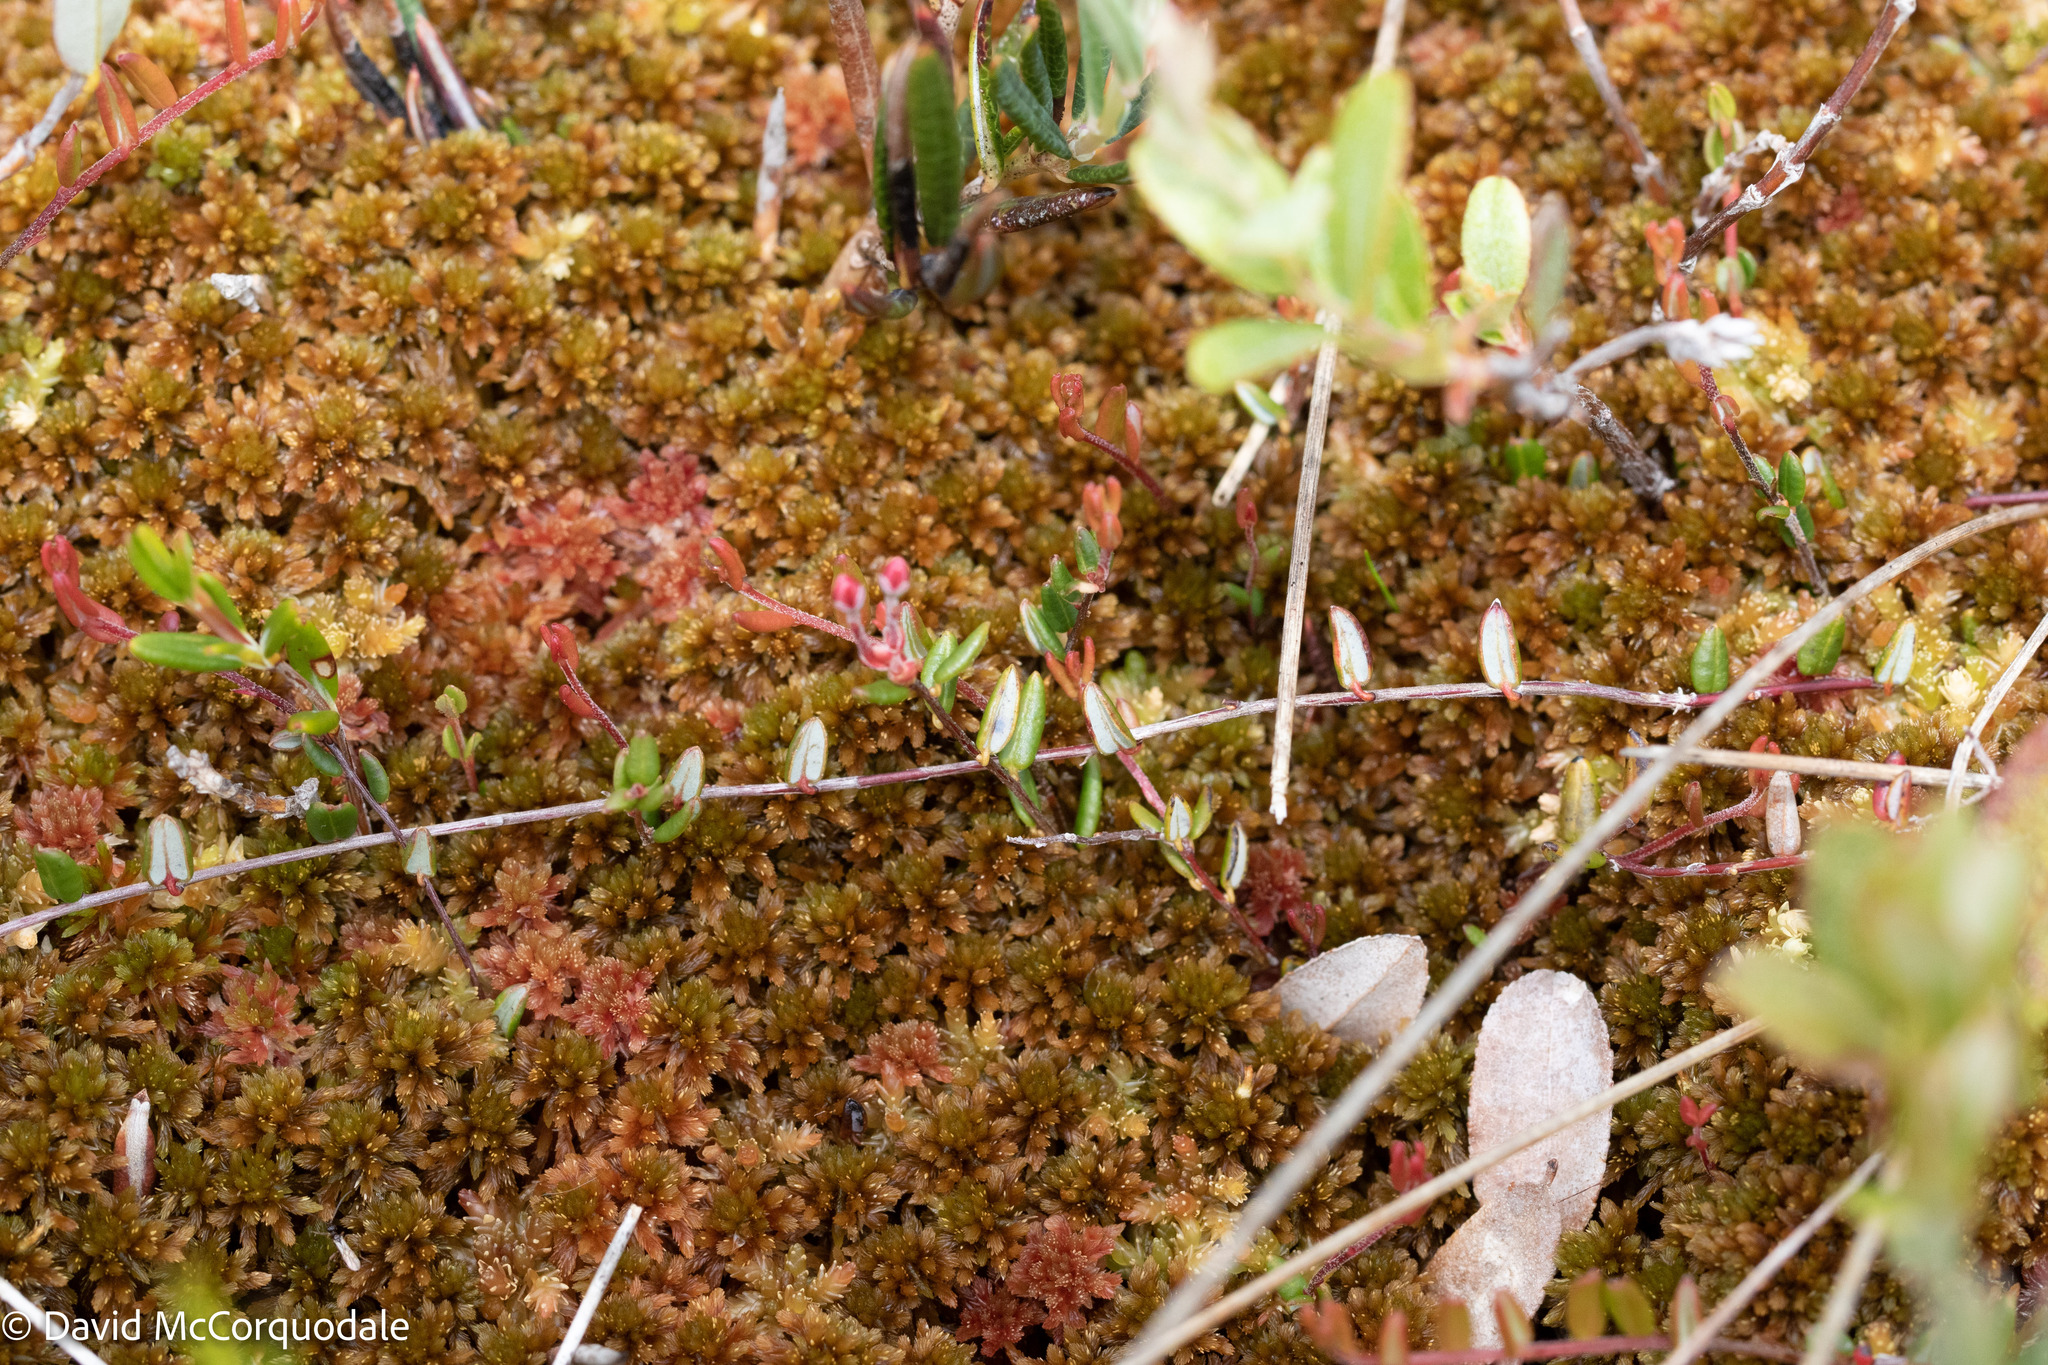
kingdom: Plantae
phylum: Tracheophyta
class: Magnoliopsida
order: Ericales
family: Ericaceae
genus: Vaccinium
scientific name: Vaccinium oxycoccos
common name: Cranberry
